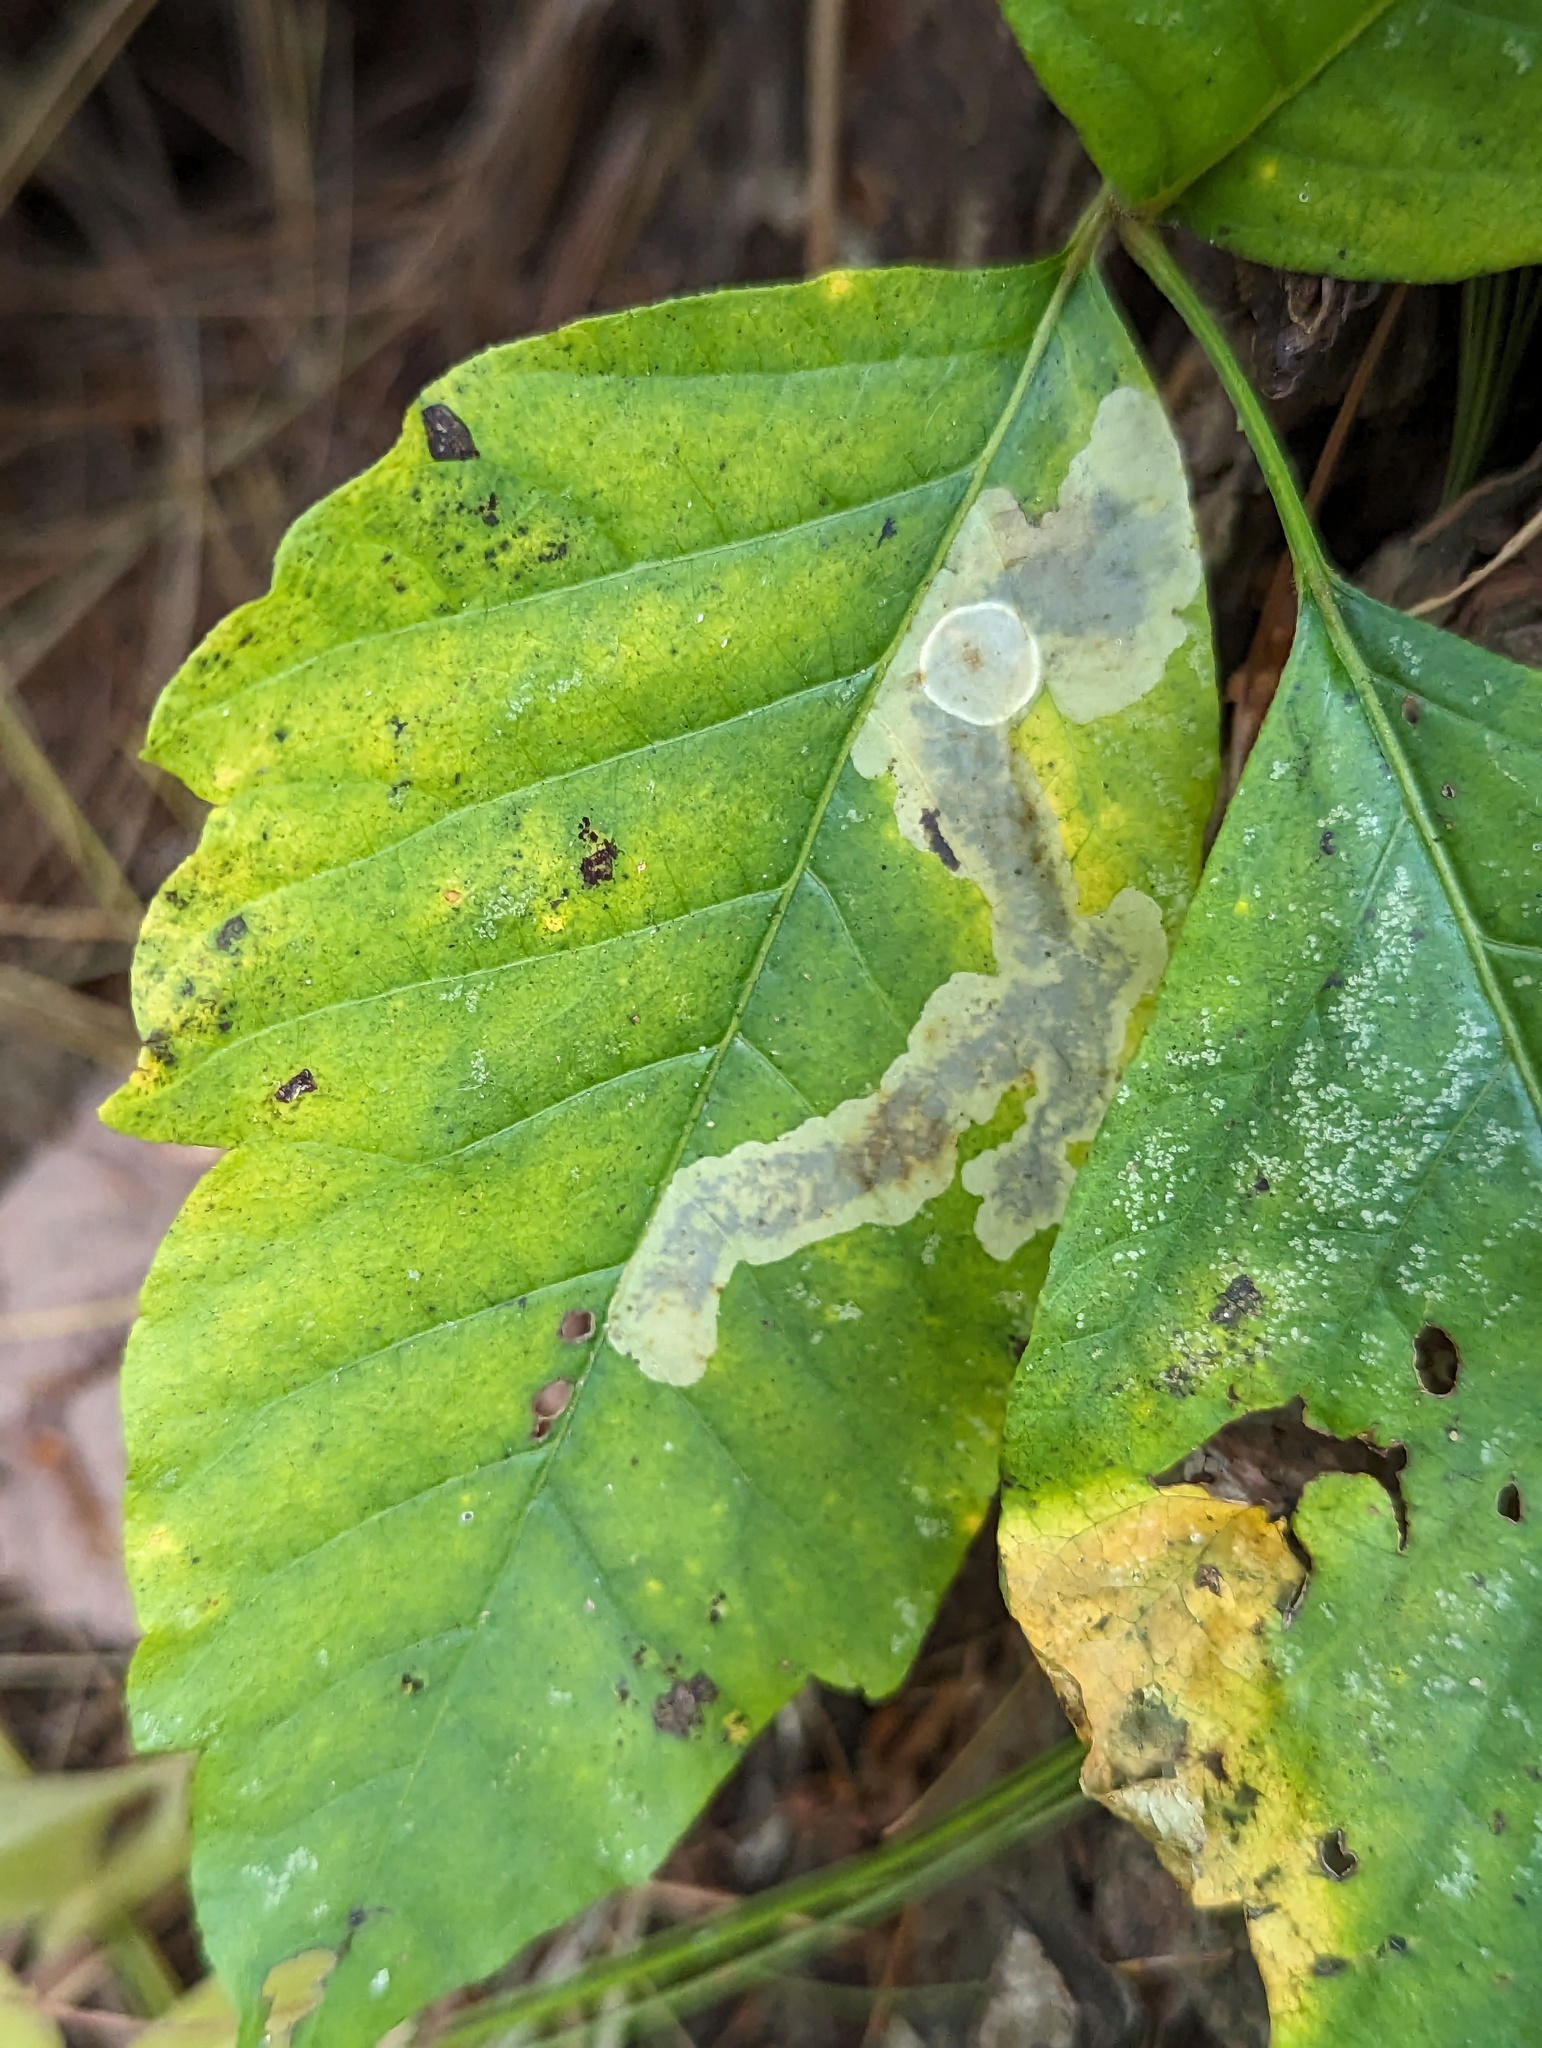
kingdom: Animalia
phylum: Arthropoda
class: Insecta
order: Lepidoptera
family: Gracillariidae
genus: Cameraria
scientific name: Cameraria guttifinitella
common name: Poison ivy leaf-miner moth
